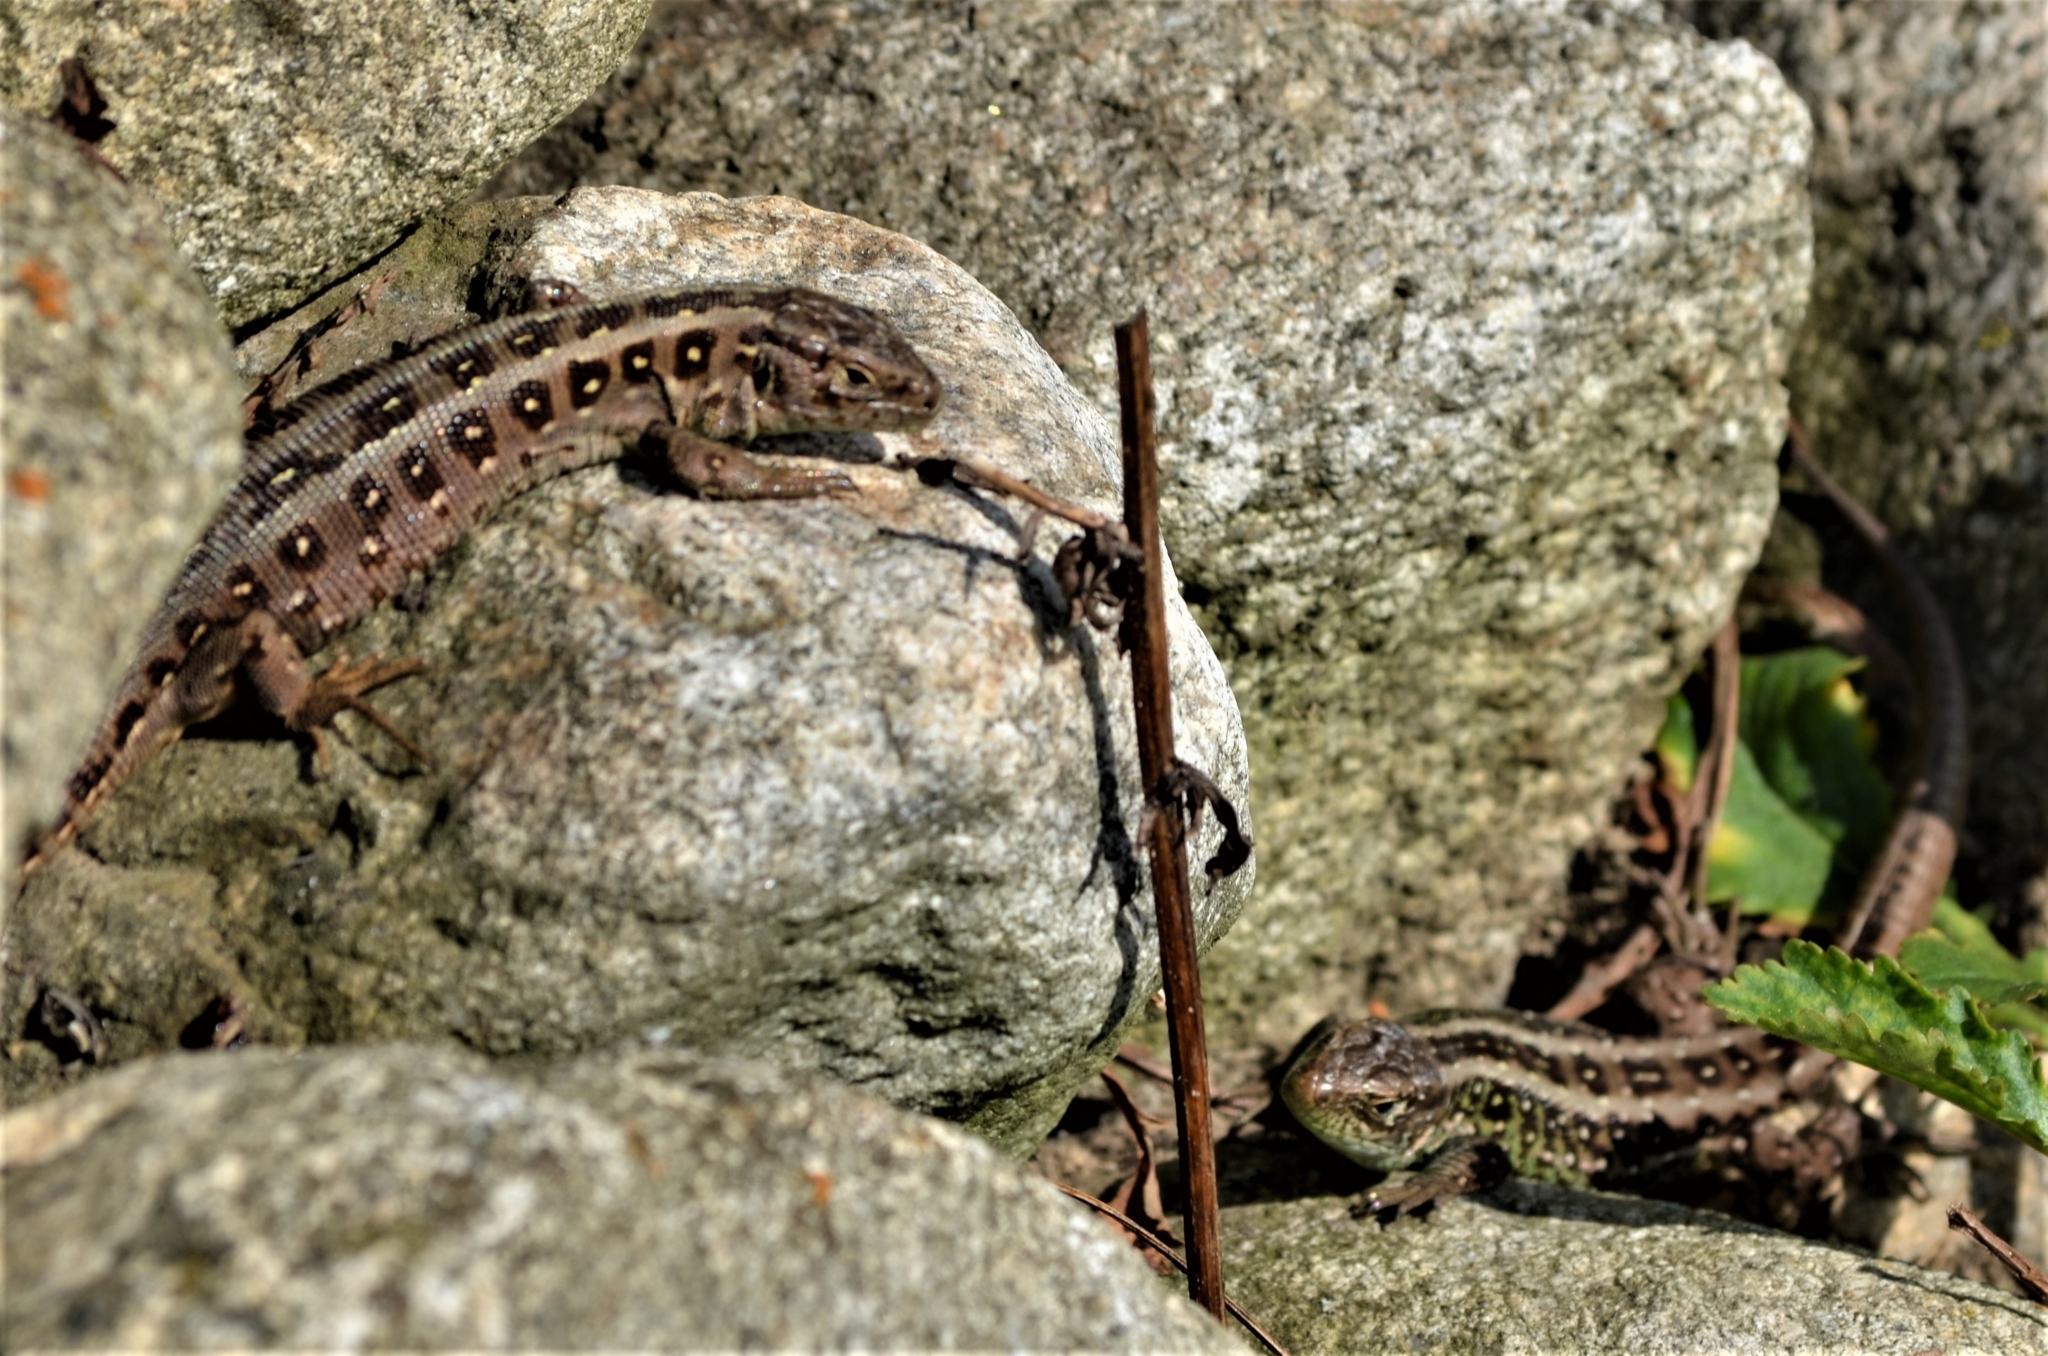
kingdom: Animalia
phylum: Chordata
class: Squamata
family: Lacertidae
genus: Lacerta
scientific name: Lacerta agilis
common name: Sand lizard
